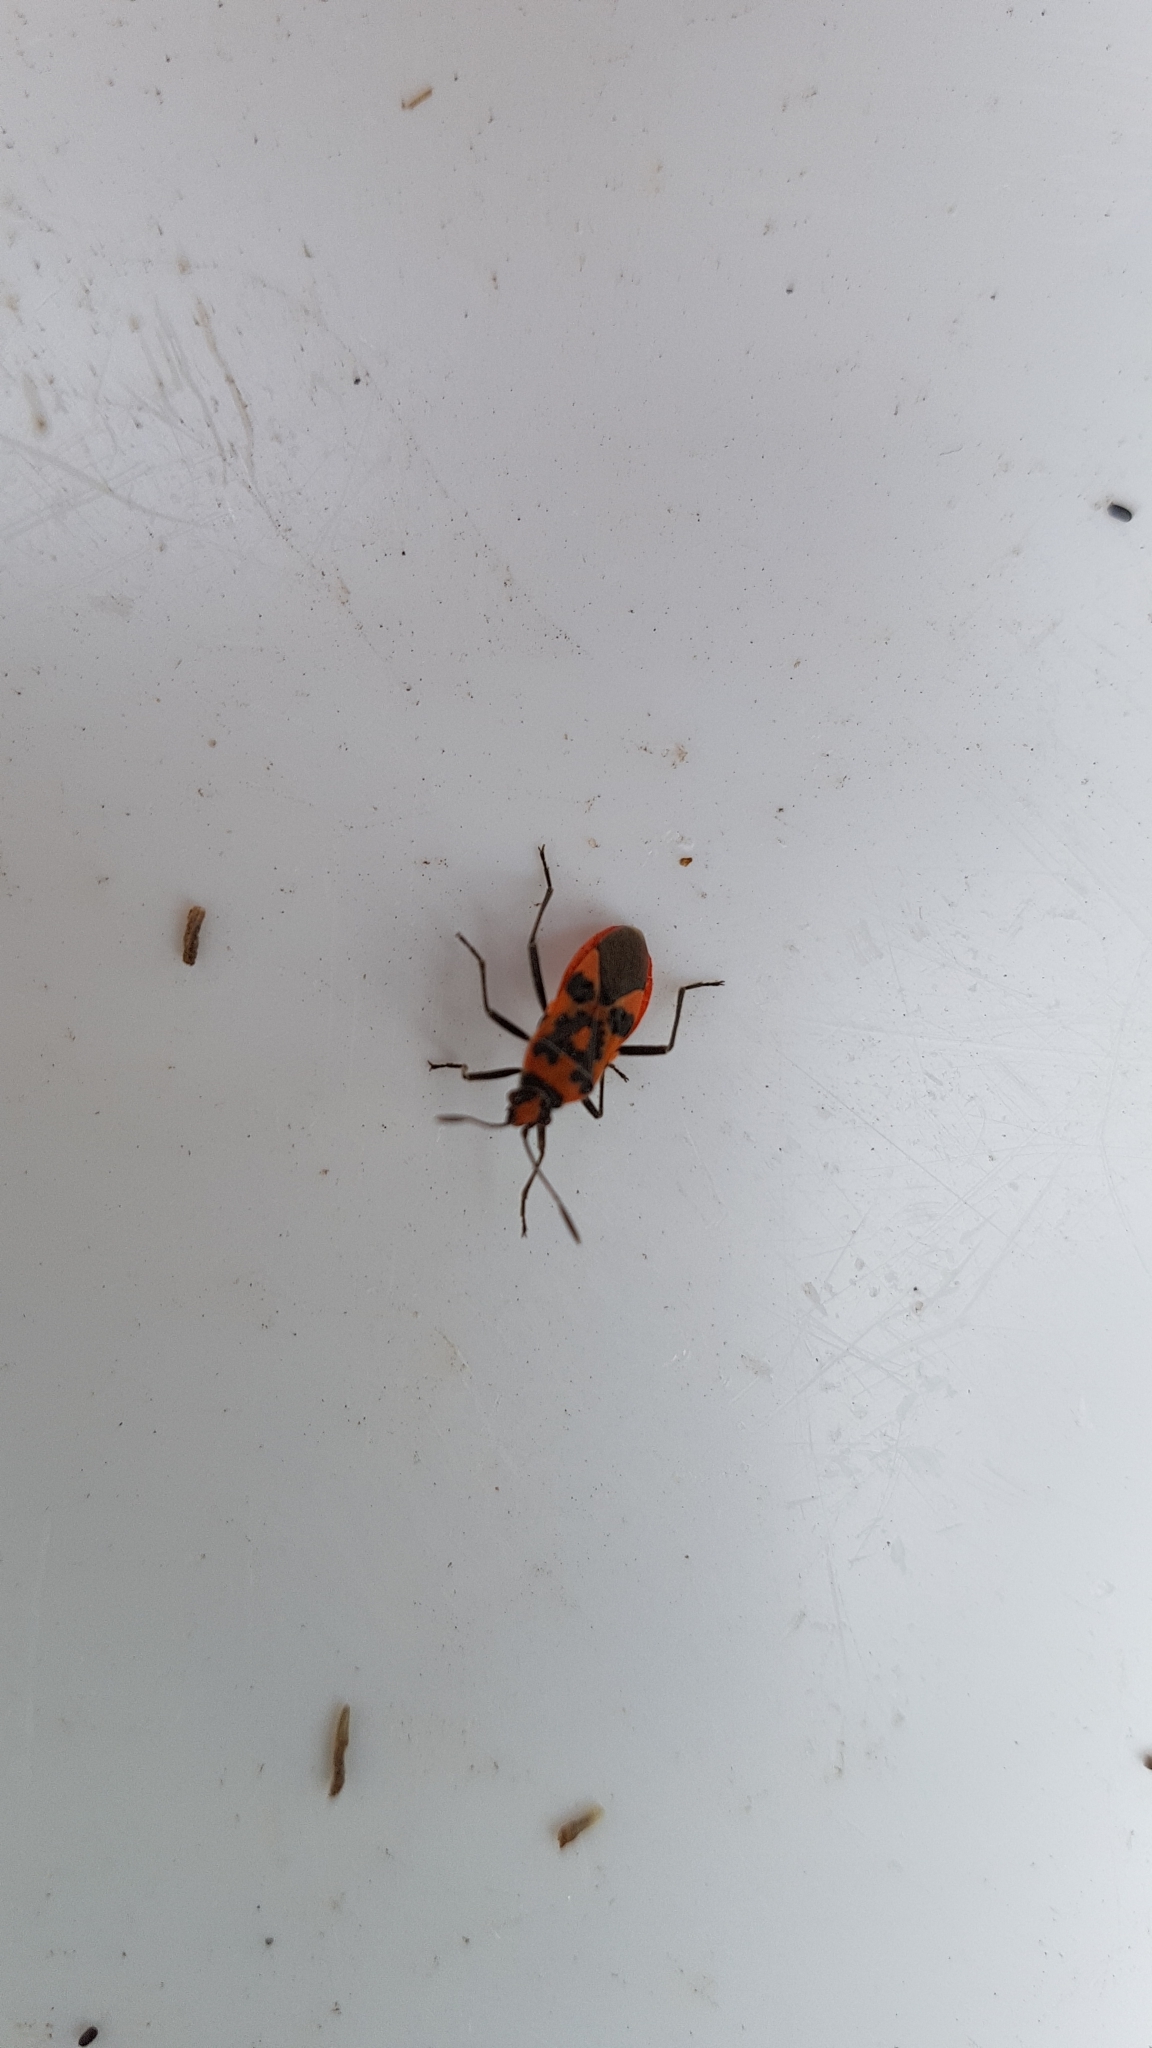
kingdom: Animalia
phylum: Arthropoda
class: Insecta
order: Hemiptera
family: Rhopalidae
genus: Corizus
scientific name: Corizus hyoscyami
